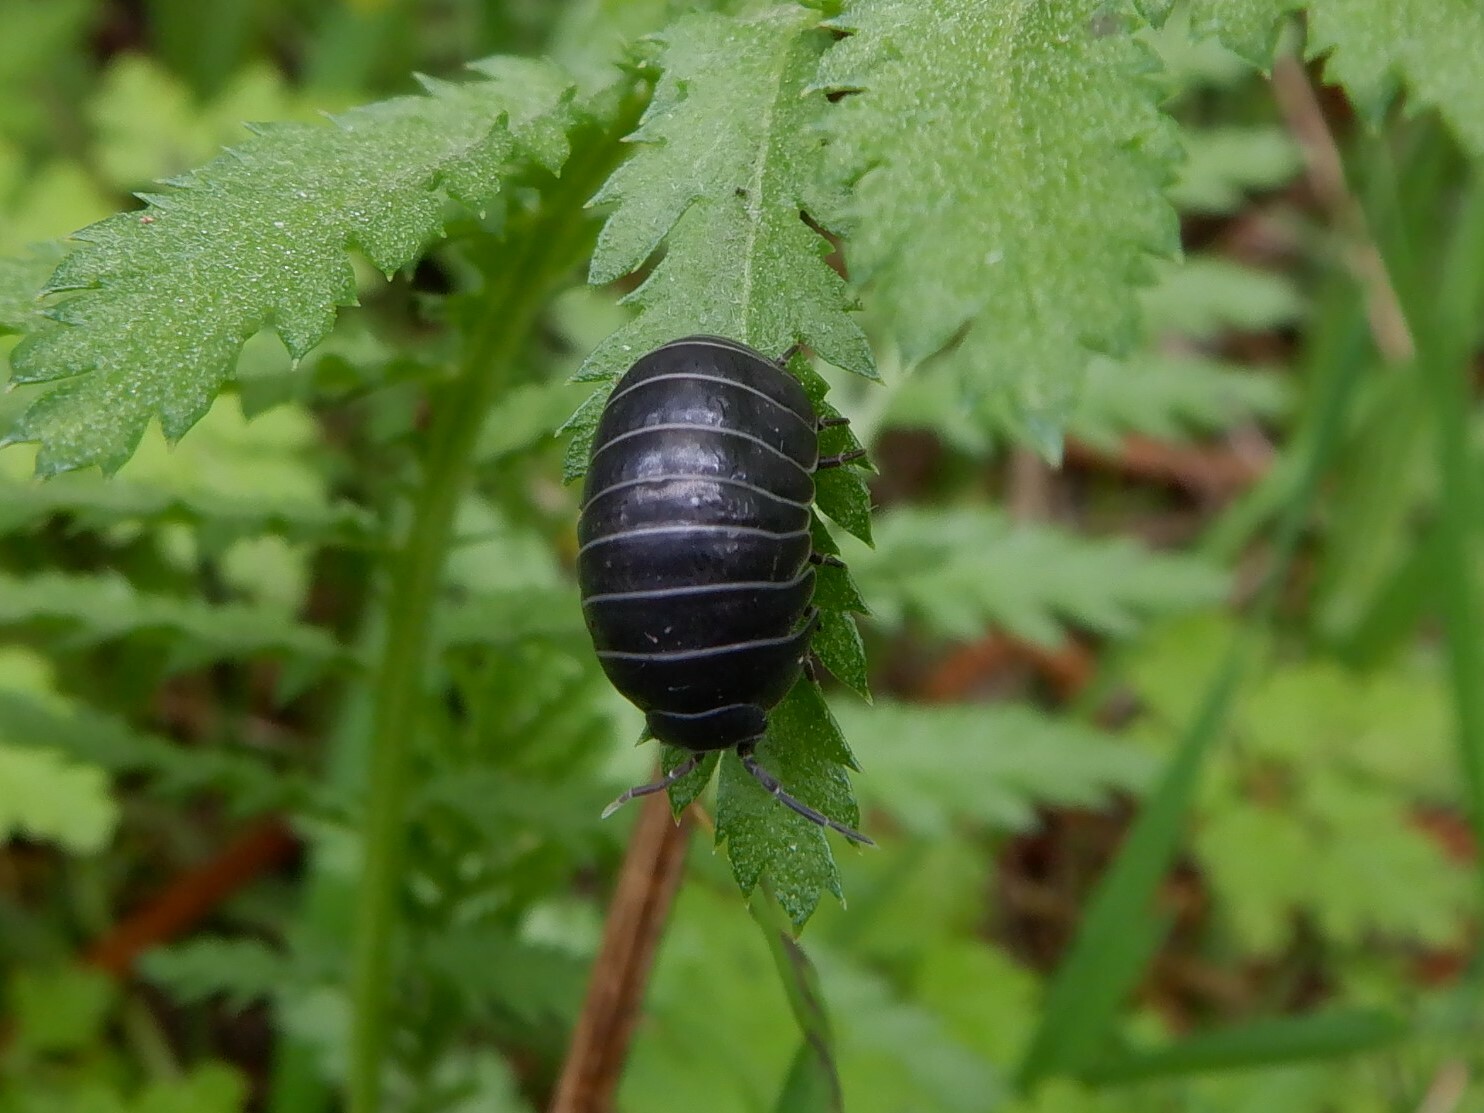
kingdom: Animalia
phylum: Arthropoda
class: Malacostraca
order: Isopoda
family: Armadillidiidae
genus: Armadillidium
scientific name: Armadillidium vulgare
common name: Common pill woodlouse
